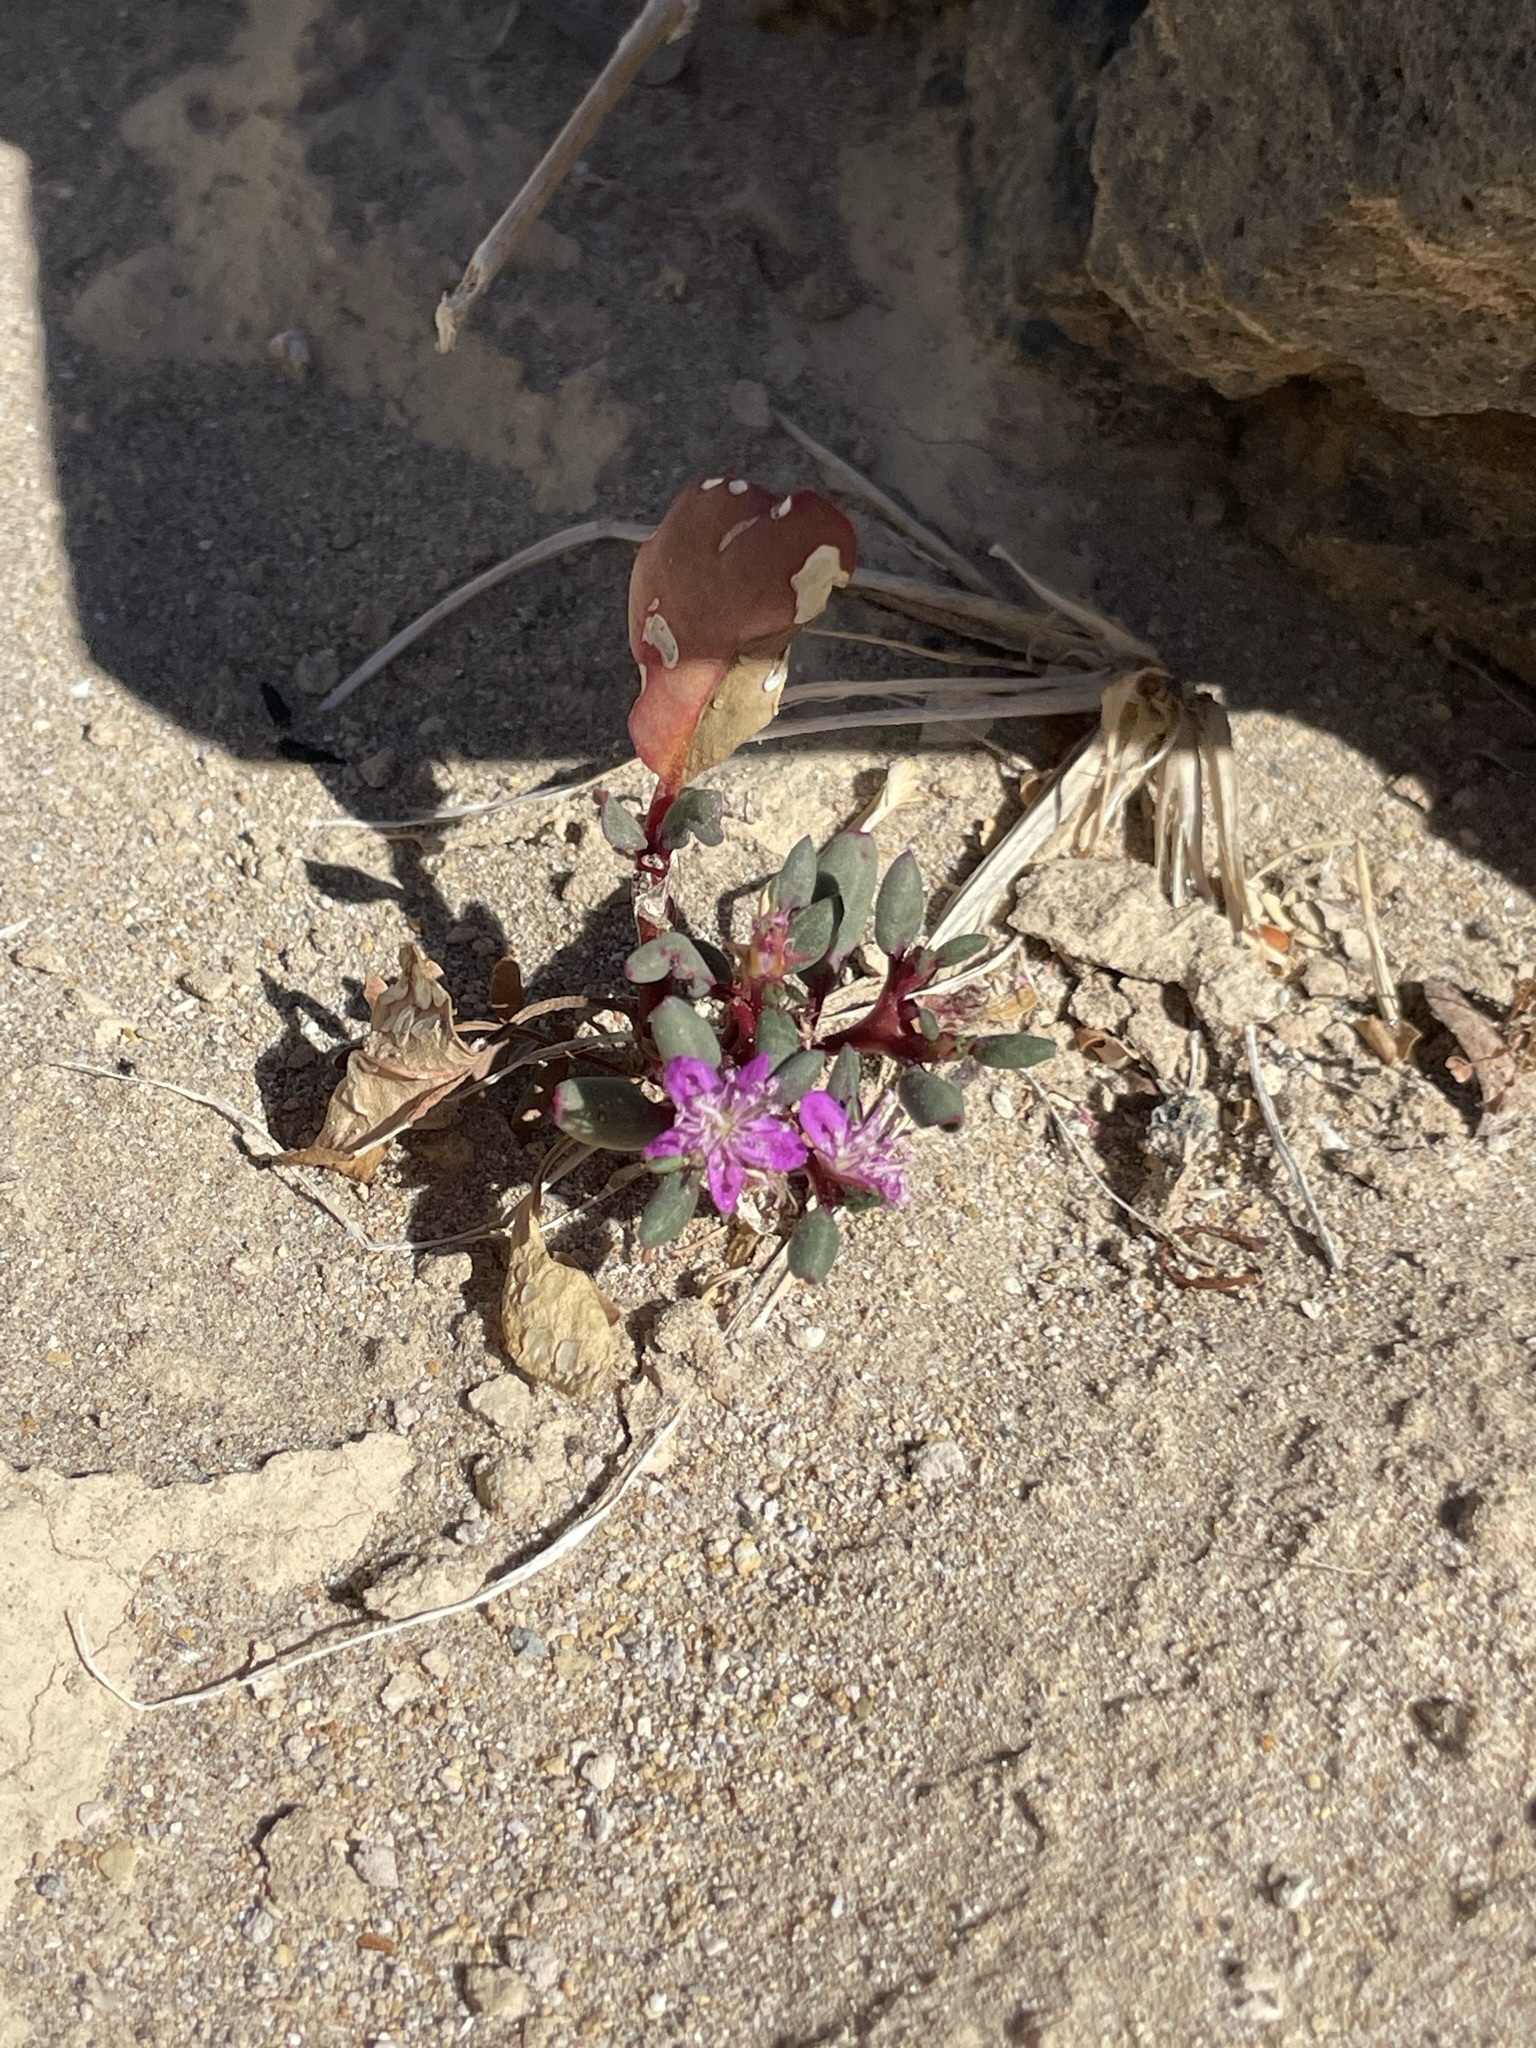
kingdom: Plantae
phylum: Tracheophyta
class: Magnoliopsida
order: Caryophyllales
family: Aizoaceae
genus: Trianthema
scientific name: Trianthema portulacastrum
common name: Desert horsepurslane
